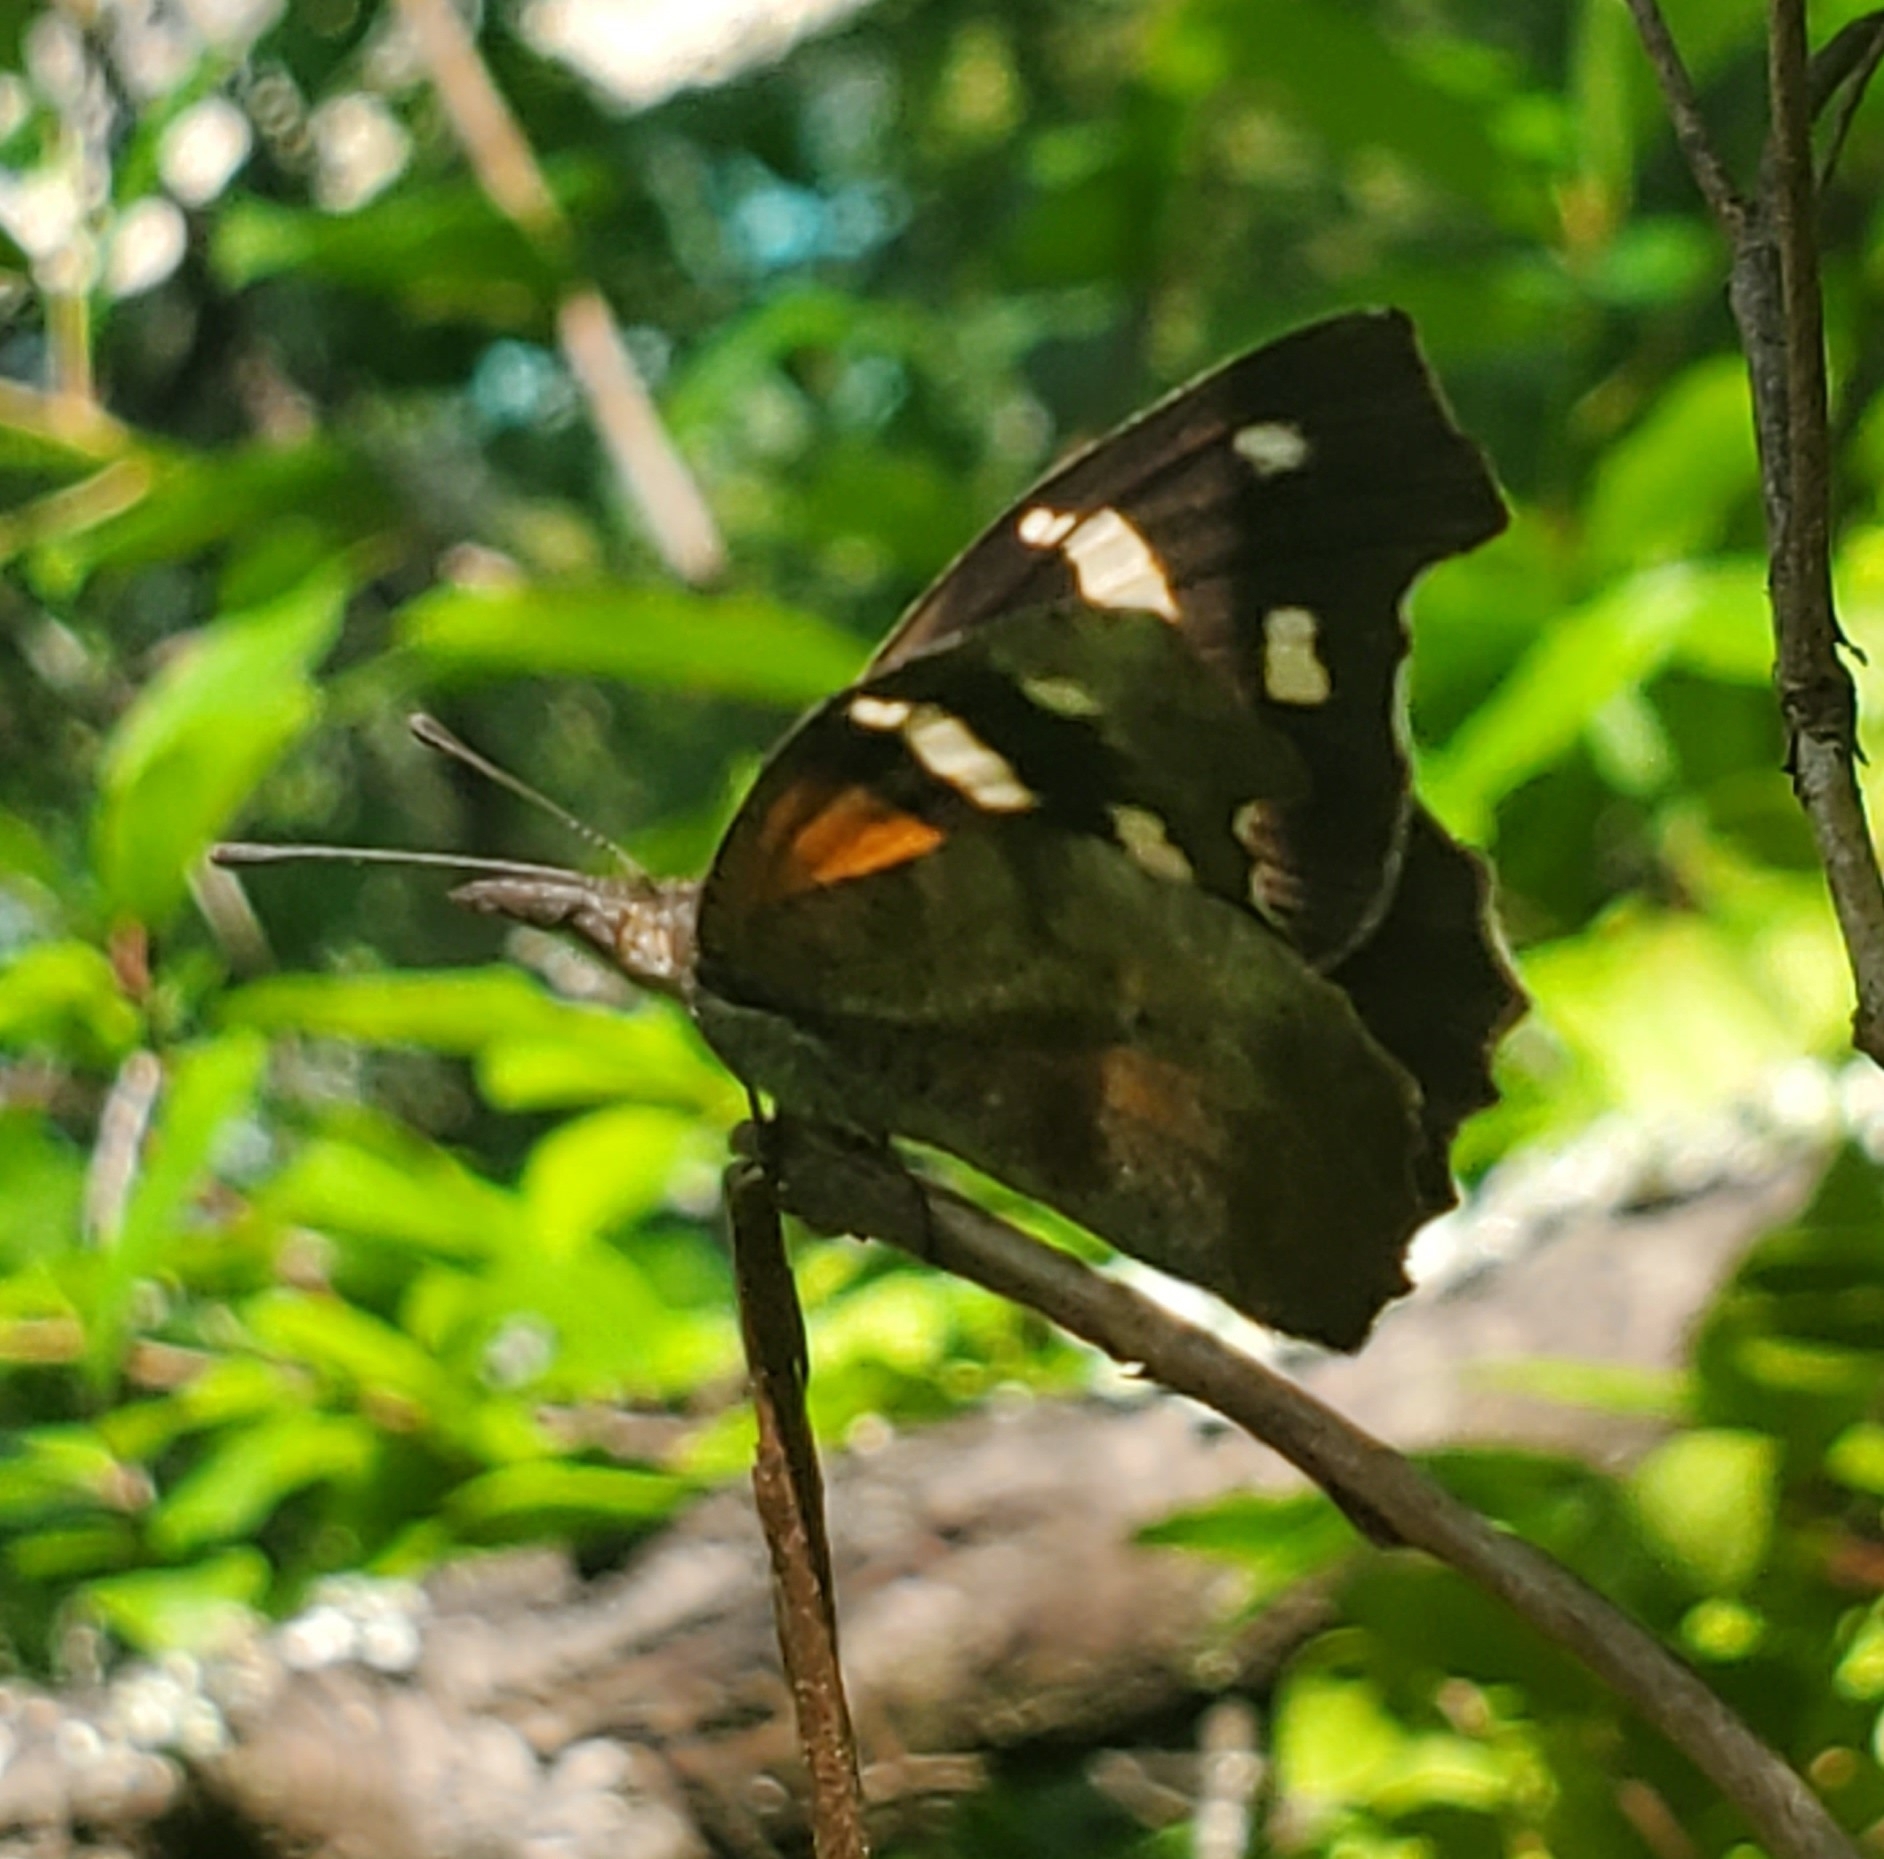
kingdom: Animalia
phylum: Arthropoda
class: Insecta
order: Lepidoptera
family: Nymphalidae
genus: Libytheana
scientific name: Libytheana carinenta
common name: American snout
